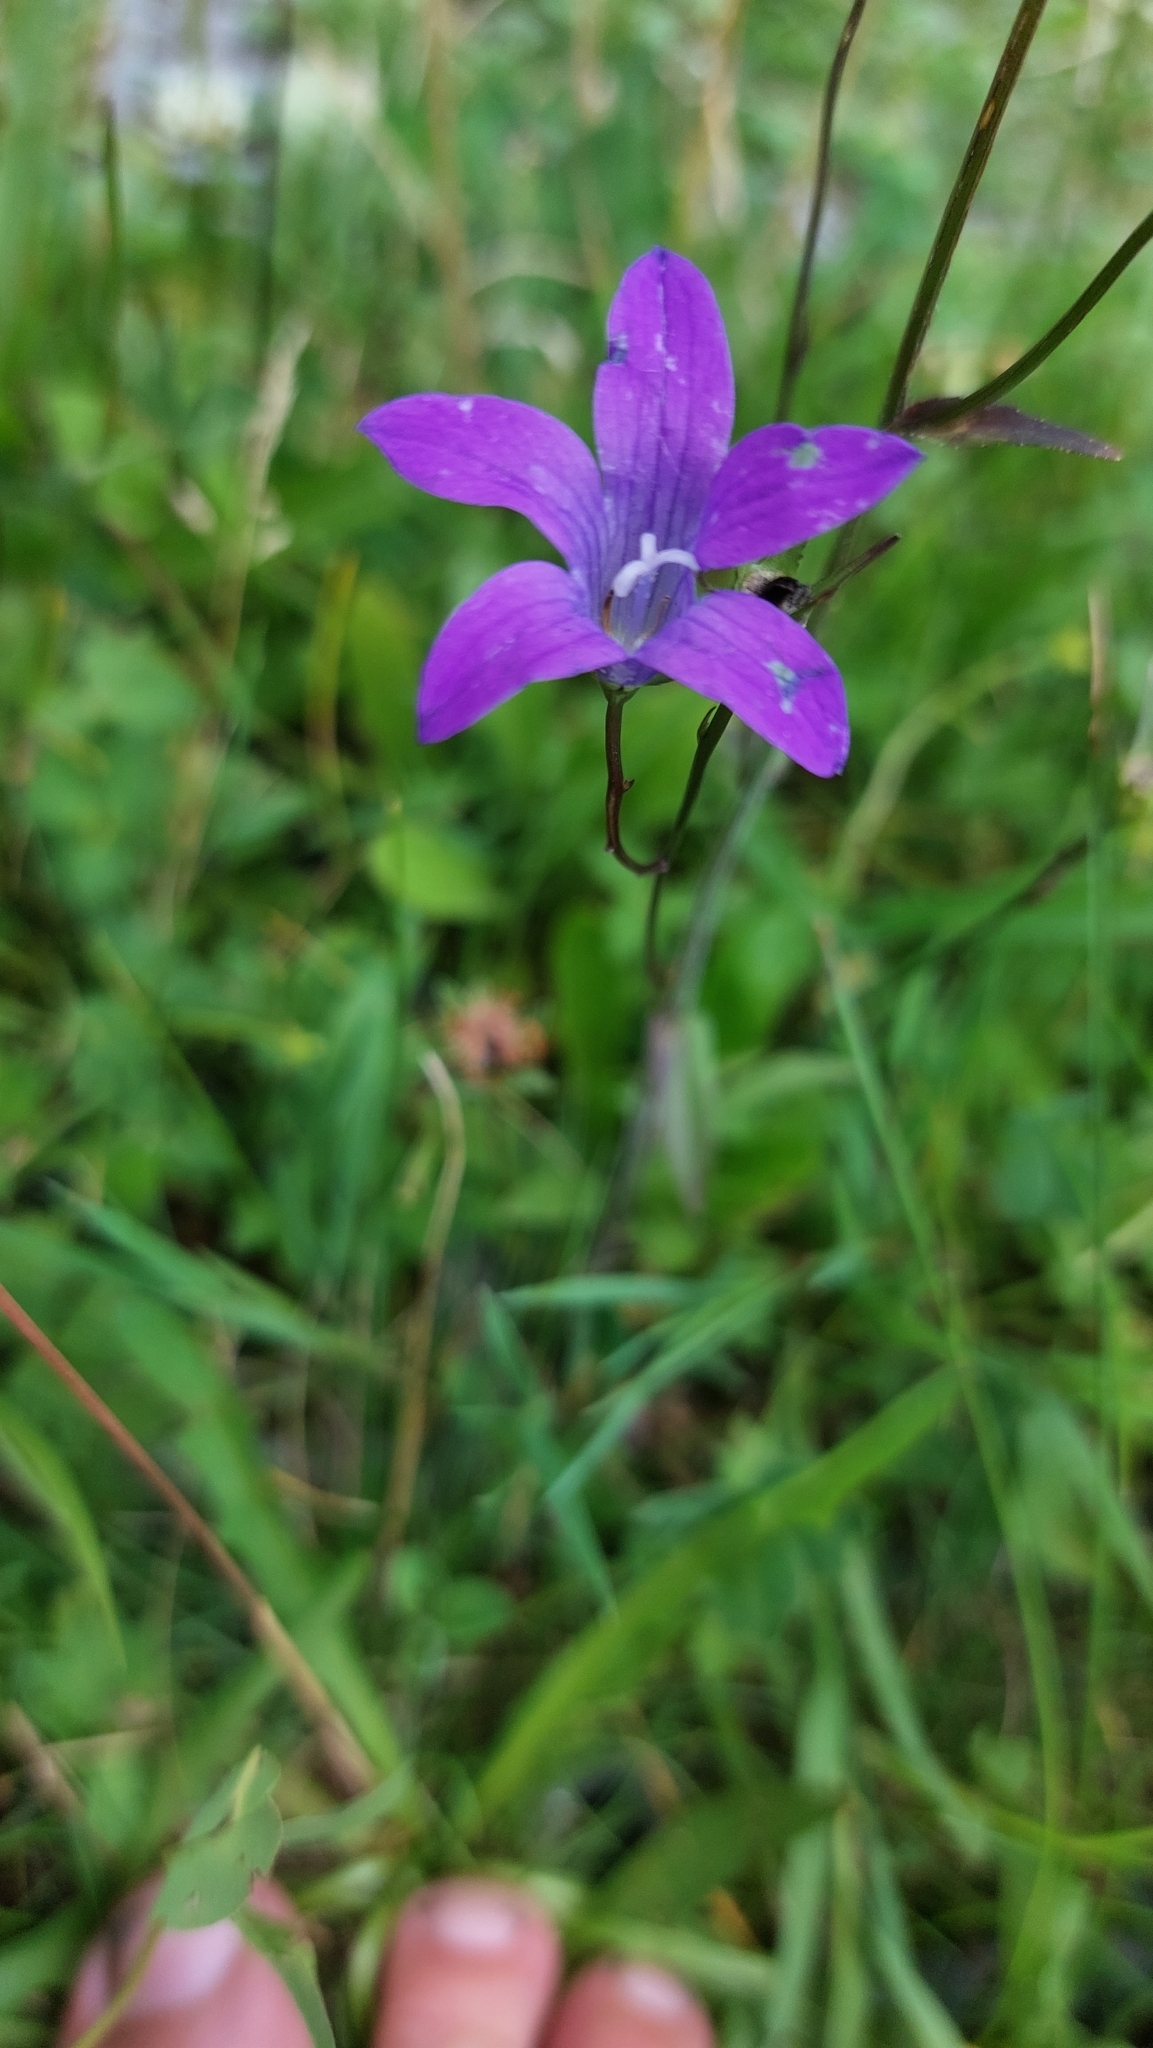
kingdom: Plantae
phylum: Tracheophyta
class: Magnoliopsida
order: Asterales
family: Campanulaceae
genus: Campanula
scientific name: Campanula patula
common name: Spreading bellflower
